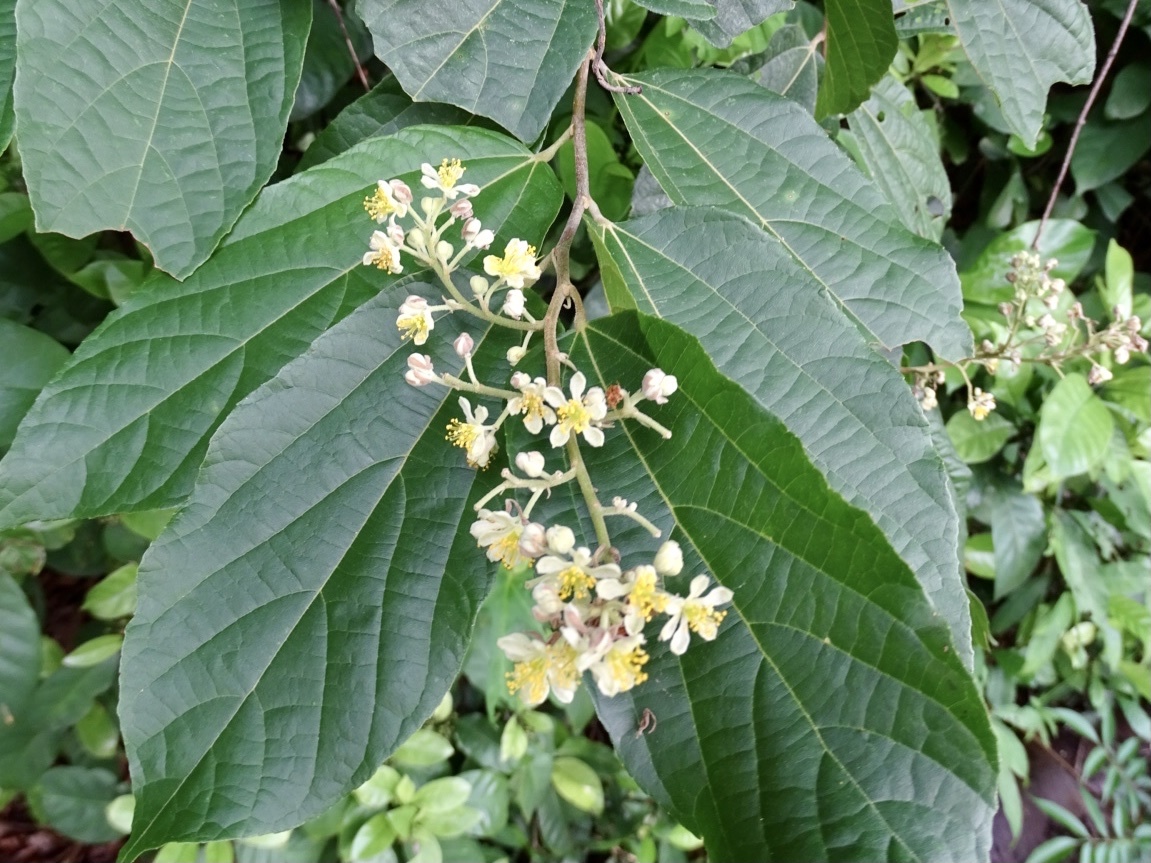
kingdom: Plantae
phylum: Tracheophyta
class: Magnoliopsida
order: Malvales
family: Malvaceae
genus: Microcos
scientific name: Microcos paniculata
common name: Microcos
